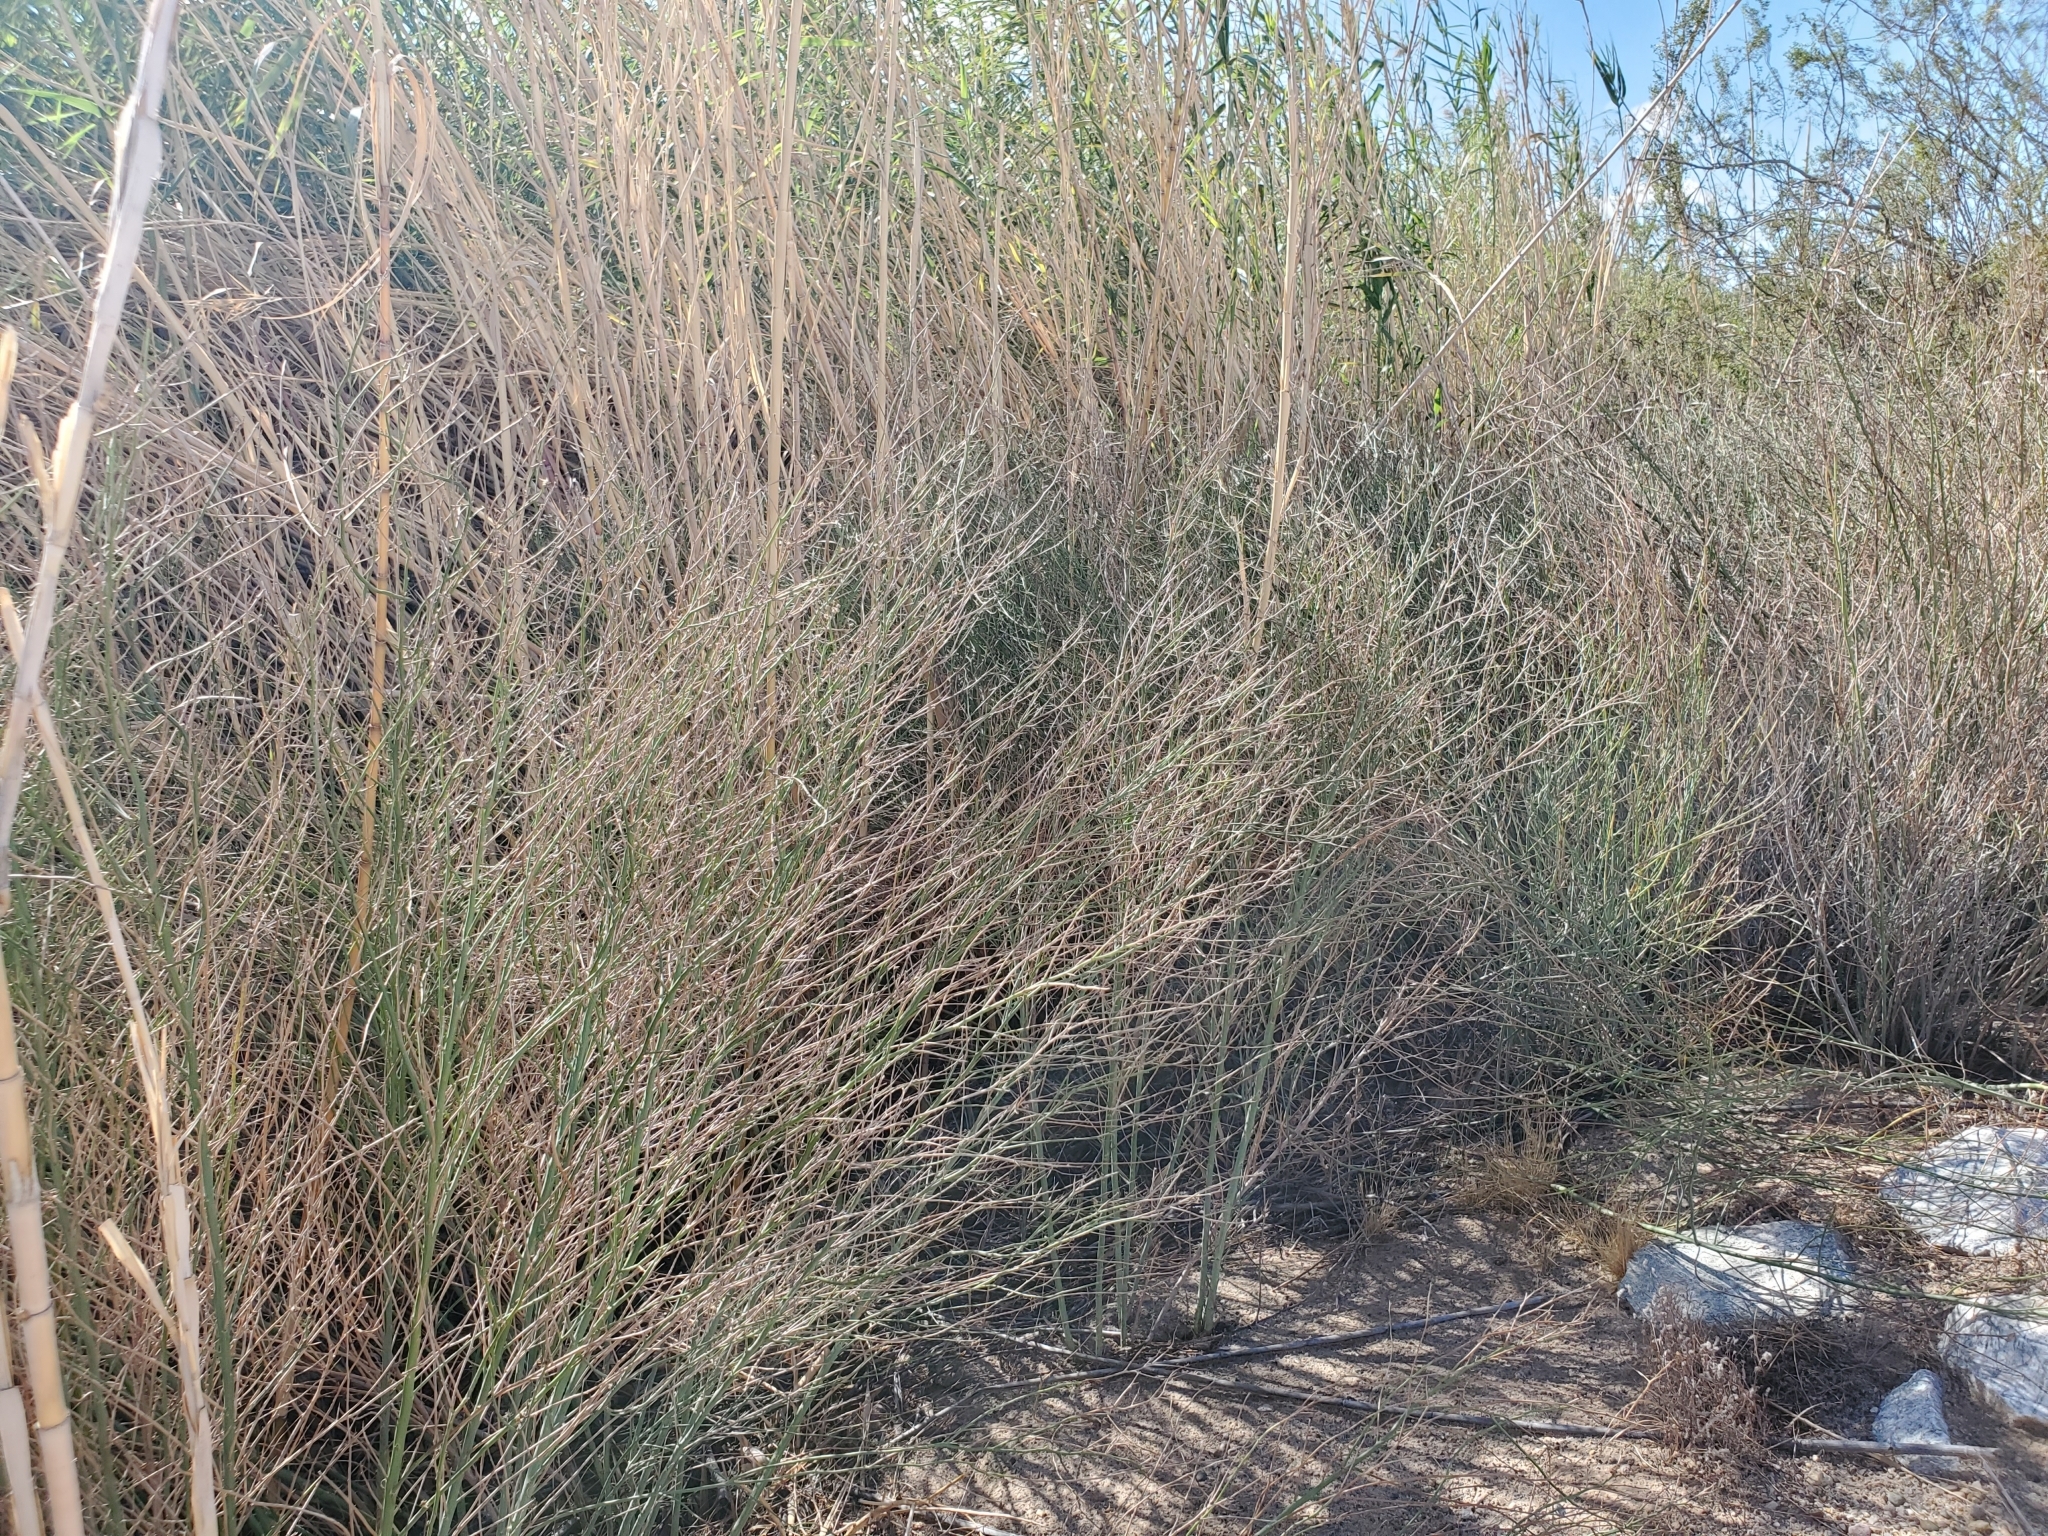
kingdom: Plantae
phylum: Tracheophyta
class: Magnoliopsida
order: Asterales
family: Asteraceae
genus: Chloracantha
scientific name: Chloracantha spinosa
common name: Mexican devilweed
